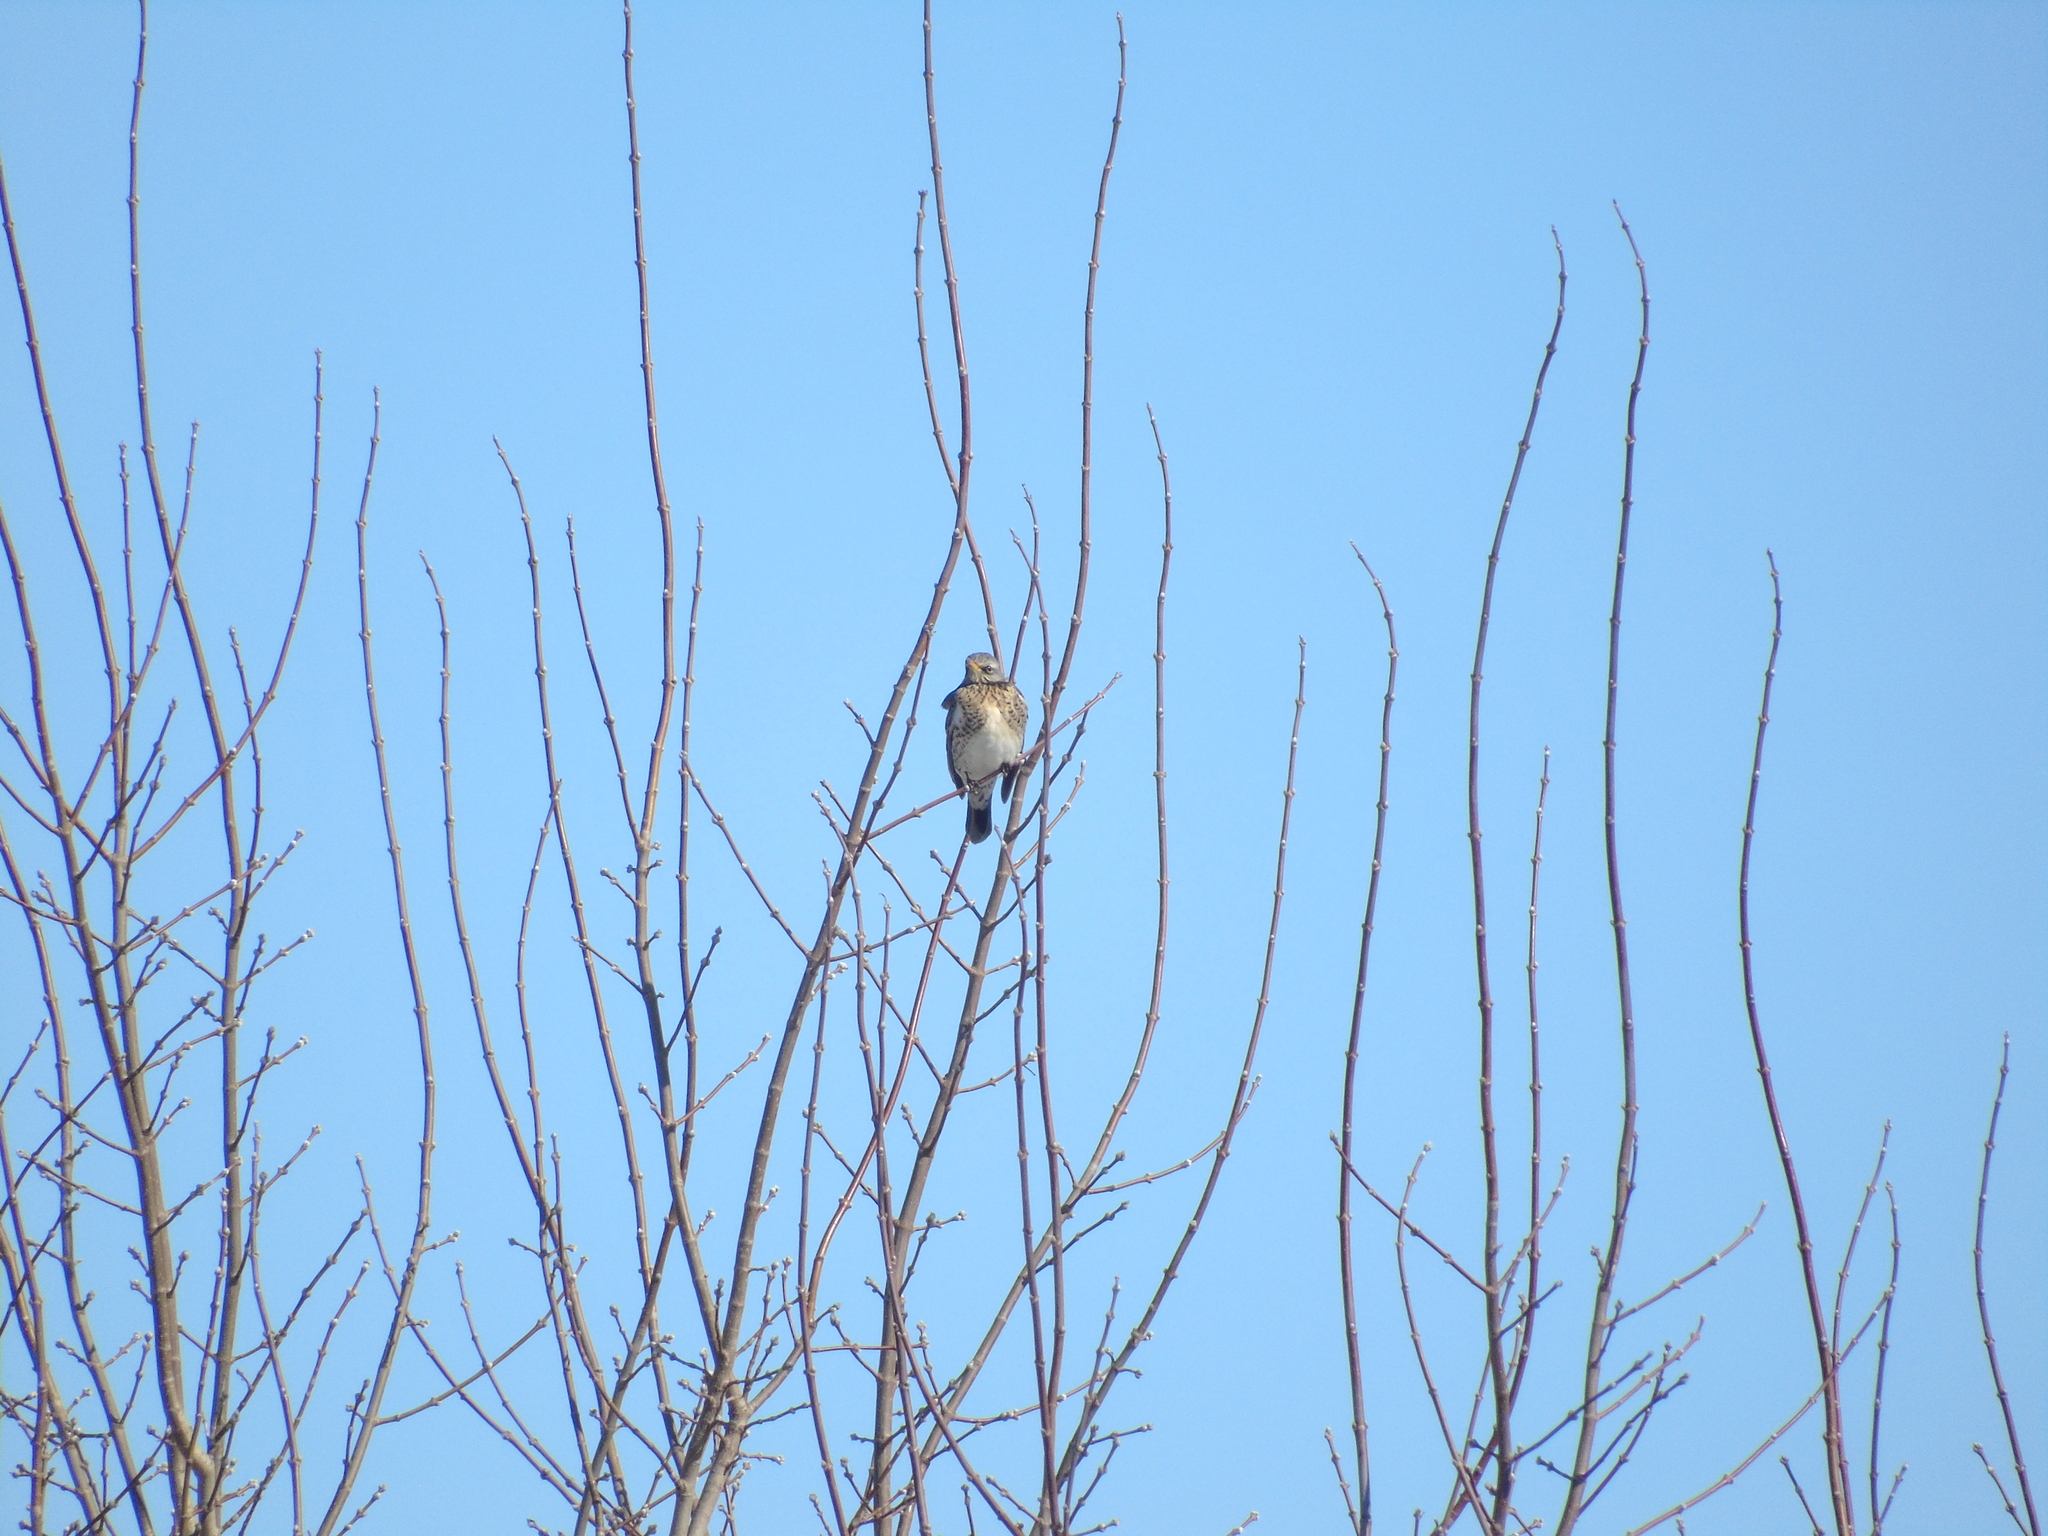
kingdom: Animalia
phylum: Chordata
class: Aves
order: Passeriformes
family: Turdidae
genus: Turdus
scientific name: Turdus pilaris
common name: Fieldfare
